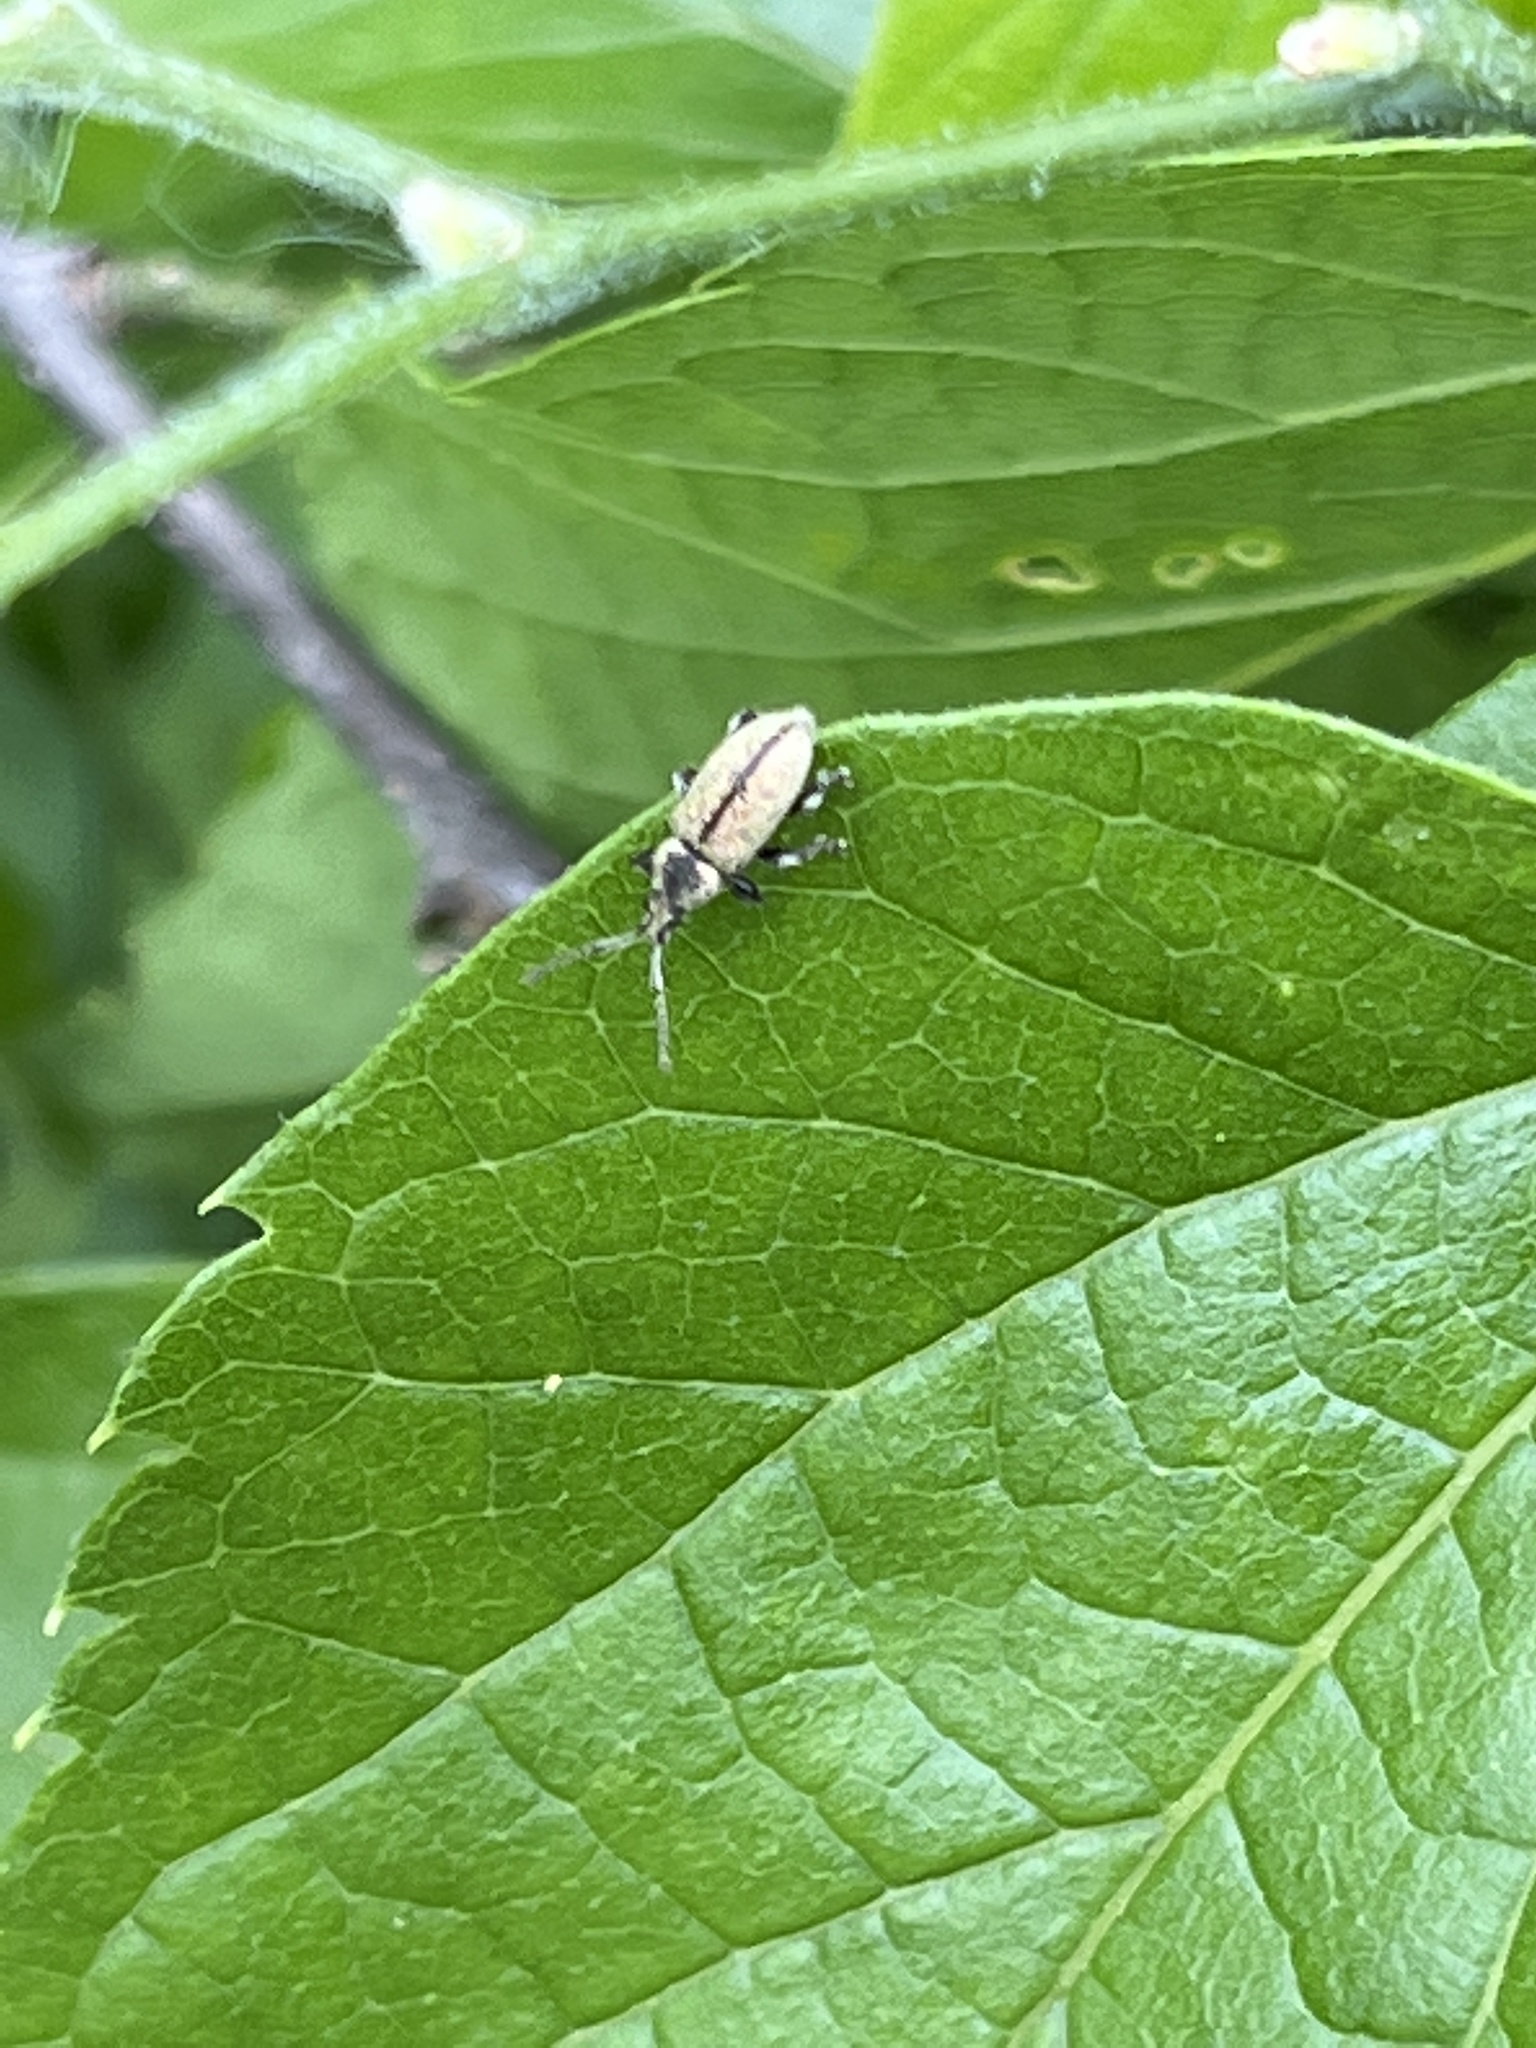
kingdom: Animalia
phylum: Arthropoda
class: Insecta
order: Coleoptera
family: Curculionidae
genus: Phyllobius
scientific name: Phyllobius betulinus
